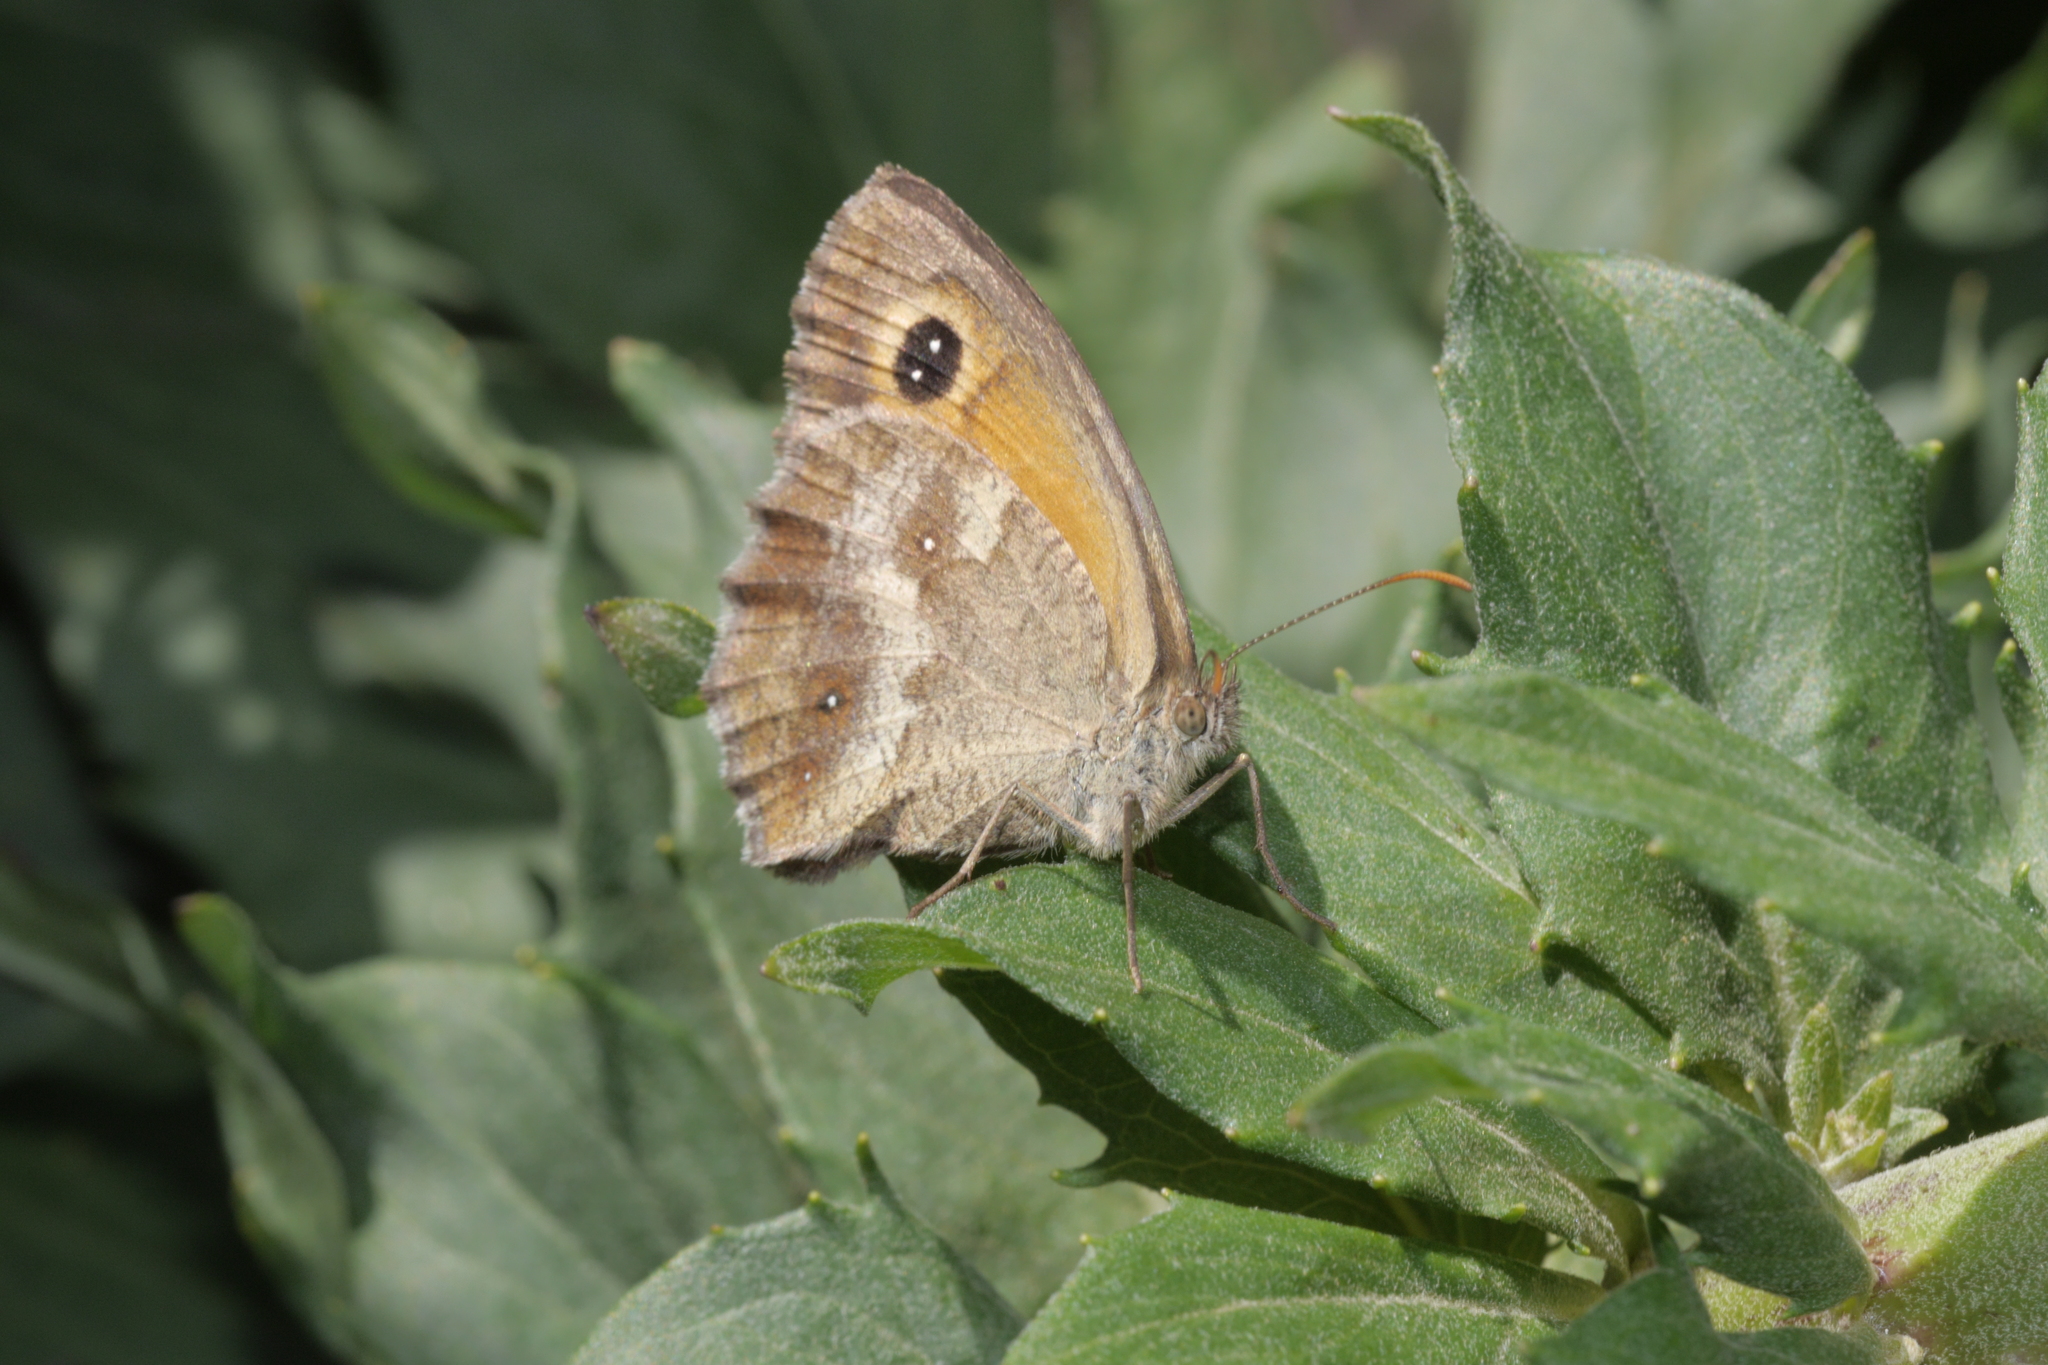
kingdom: Animalia
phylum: Arthropoda
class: Insecta
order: Lepidoptera
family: Nymphalidae
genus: Pyronia
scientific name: Pyronia tithonus
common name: Gatekeeper
